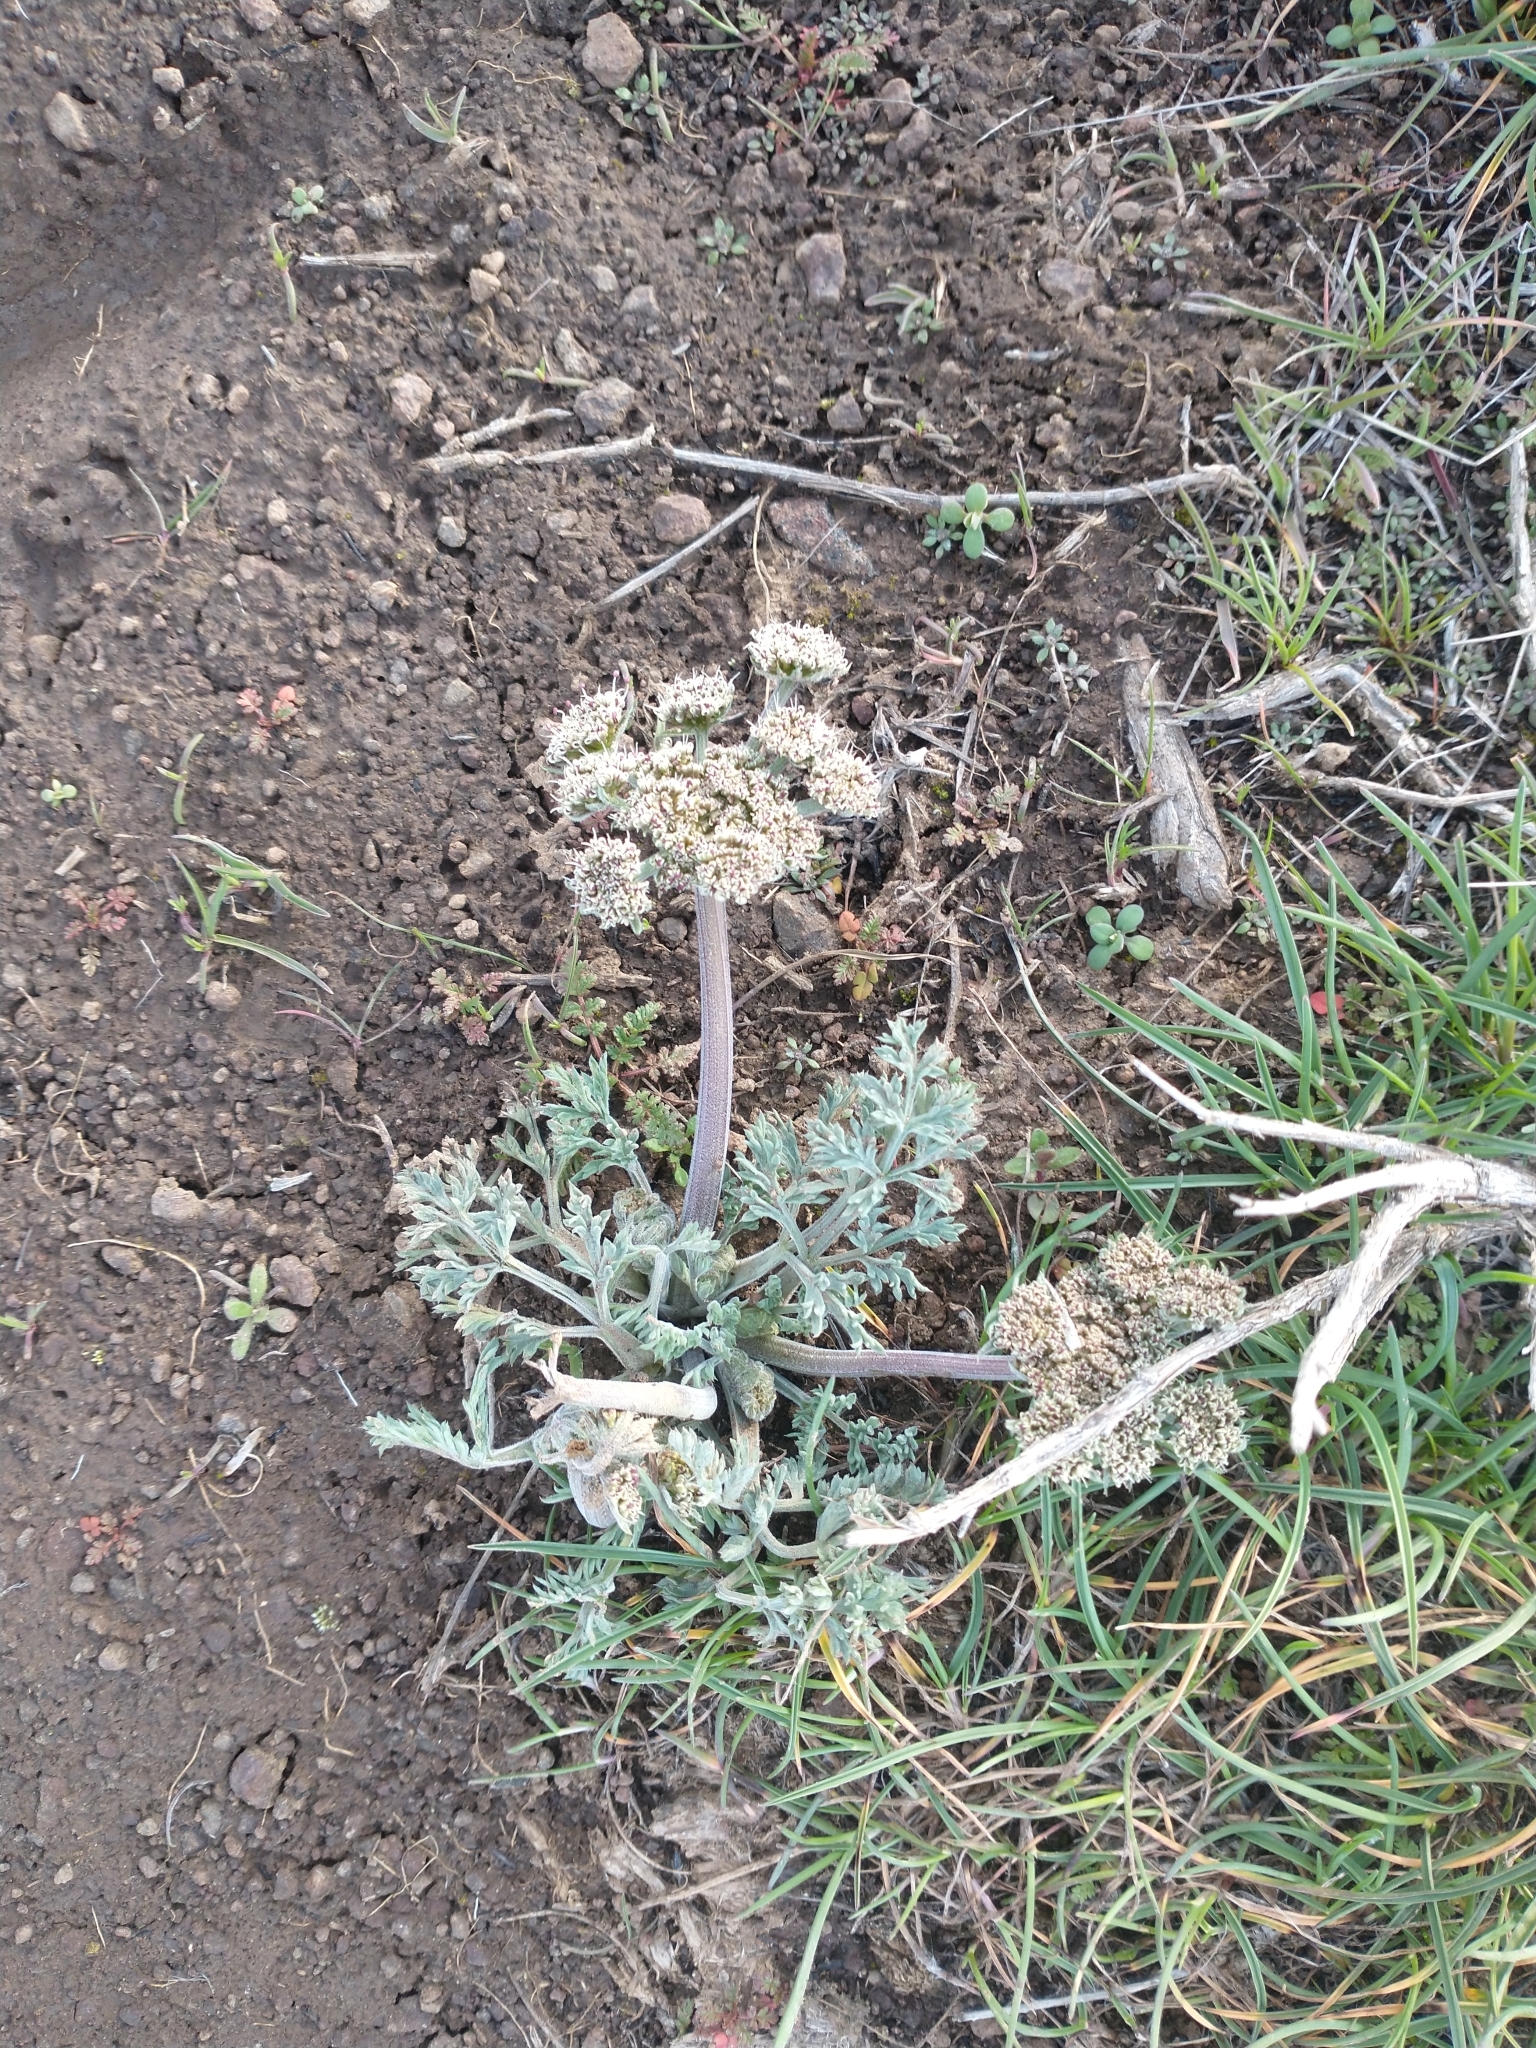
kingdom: Plantae
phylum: Tracheophyta
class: Magnoliopsida
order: Apiales
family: Apiaceae
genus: Lomatium
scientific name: Lomatium macrocarpum
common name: Big-seed biscuitroot
